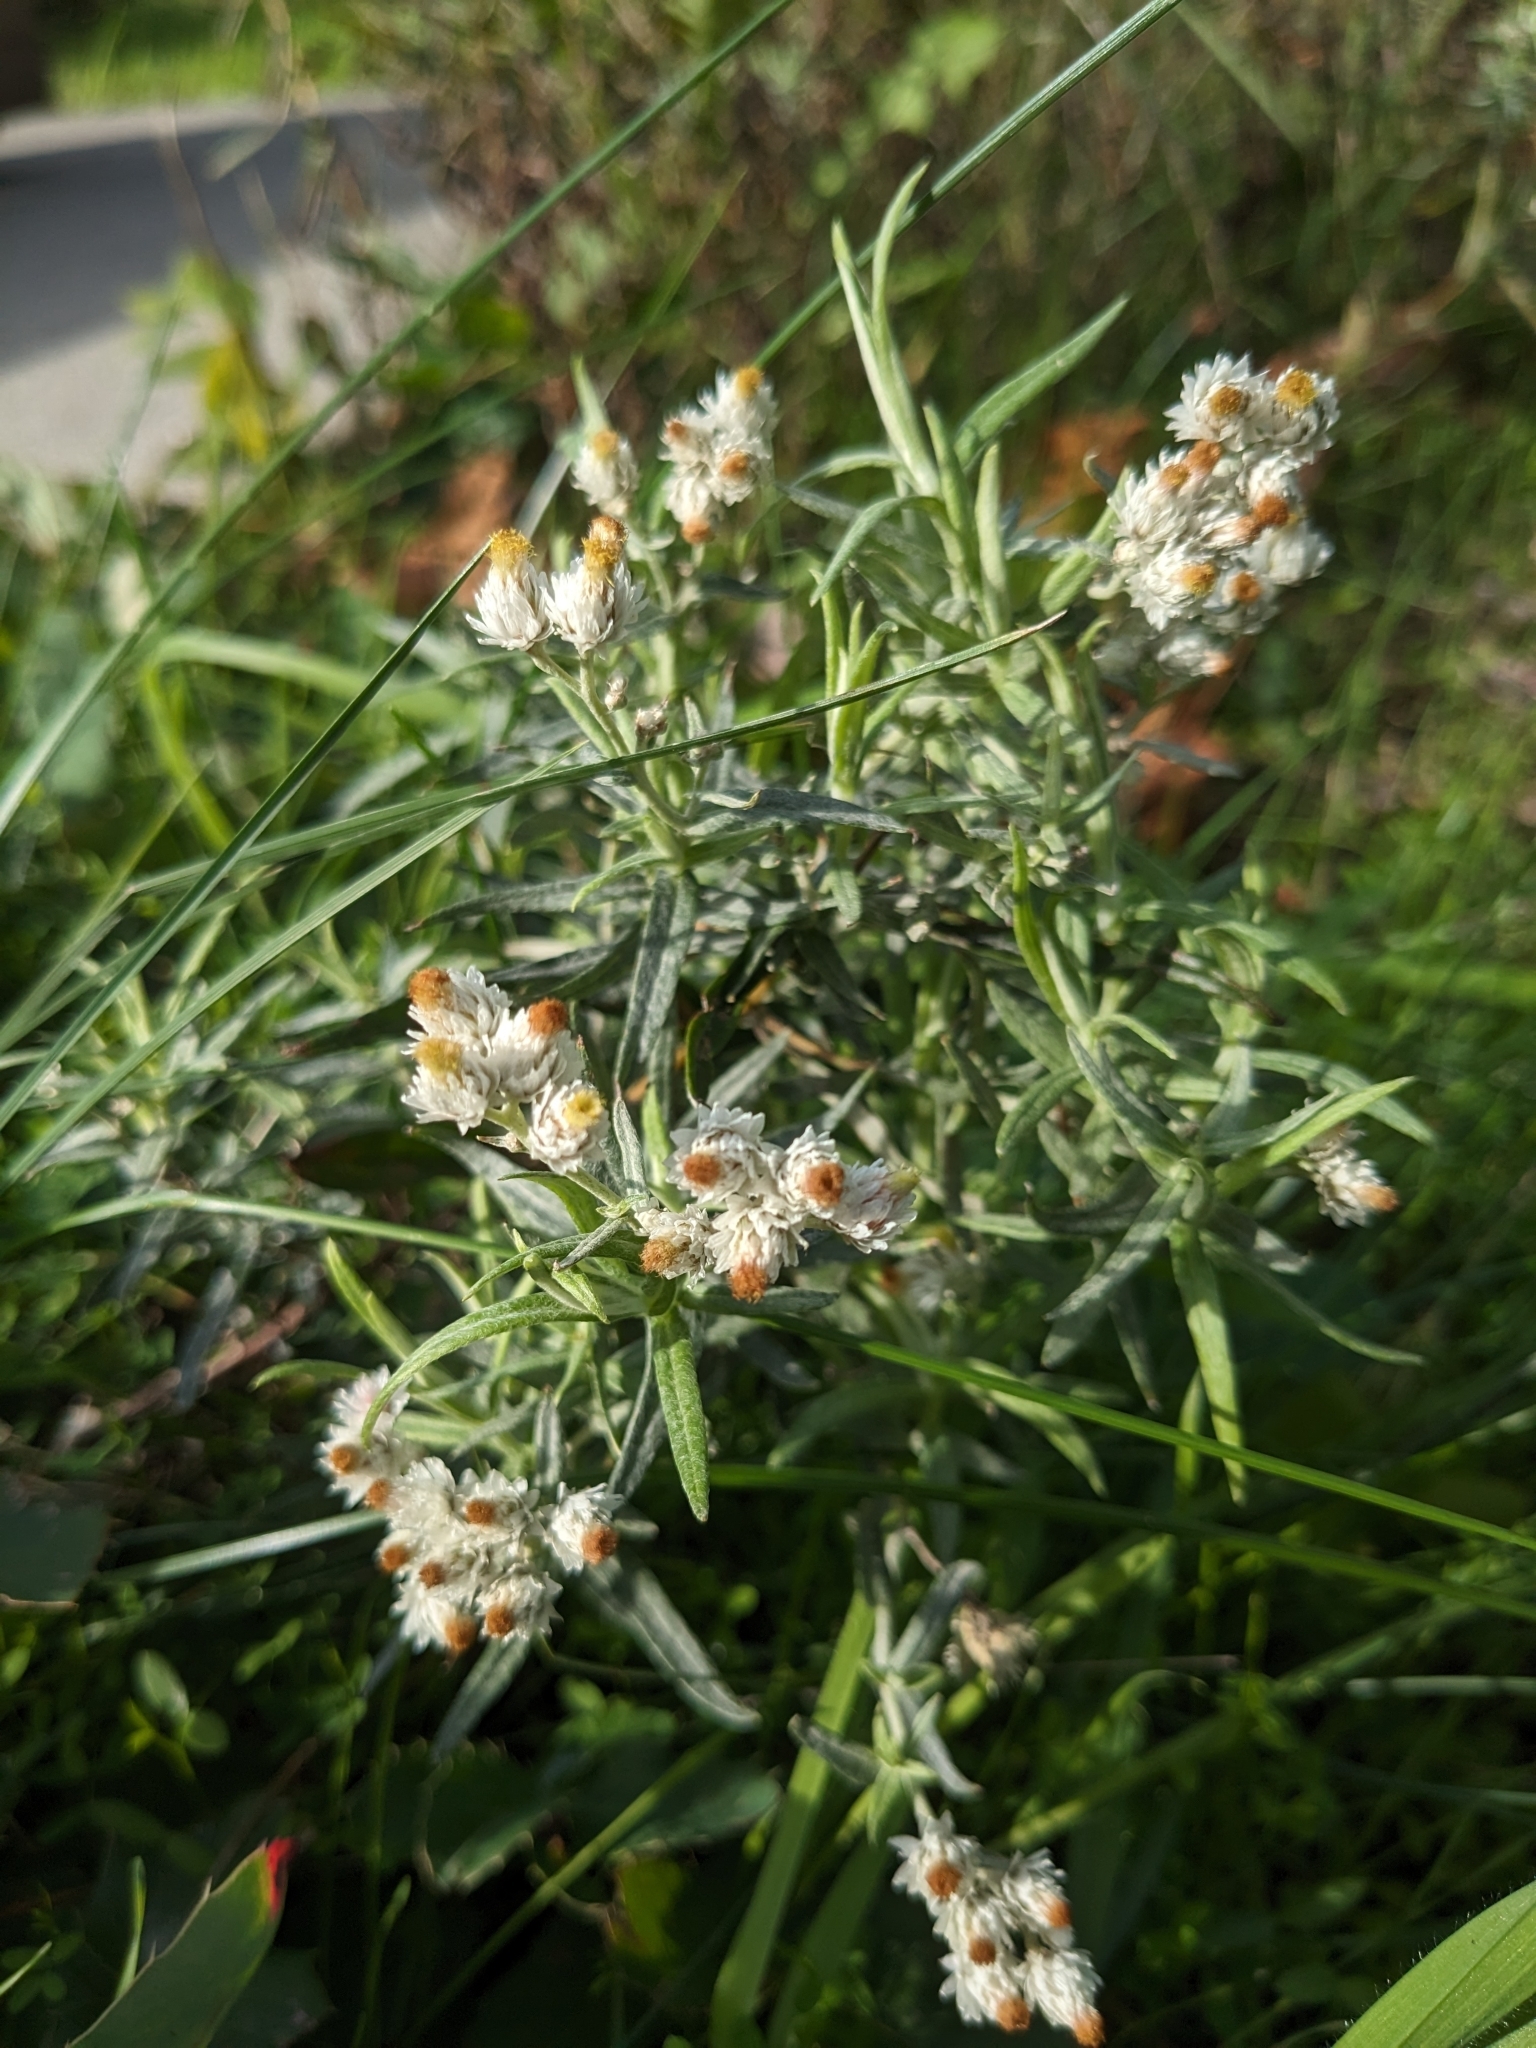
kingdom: Plantae
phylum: Tracheophyta
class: Magnoliopsida
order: Asterales
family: Asteraceae
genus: Anaphalis
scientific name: Anaphalis margaritacea
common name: Pearly everlasting
